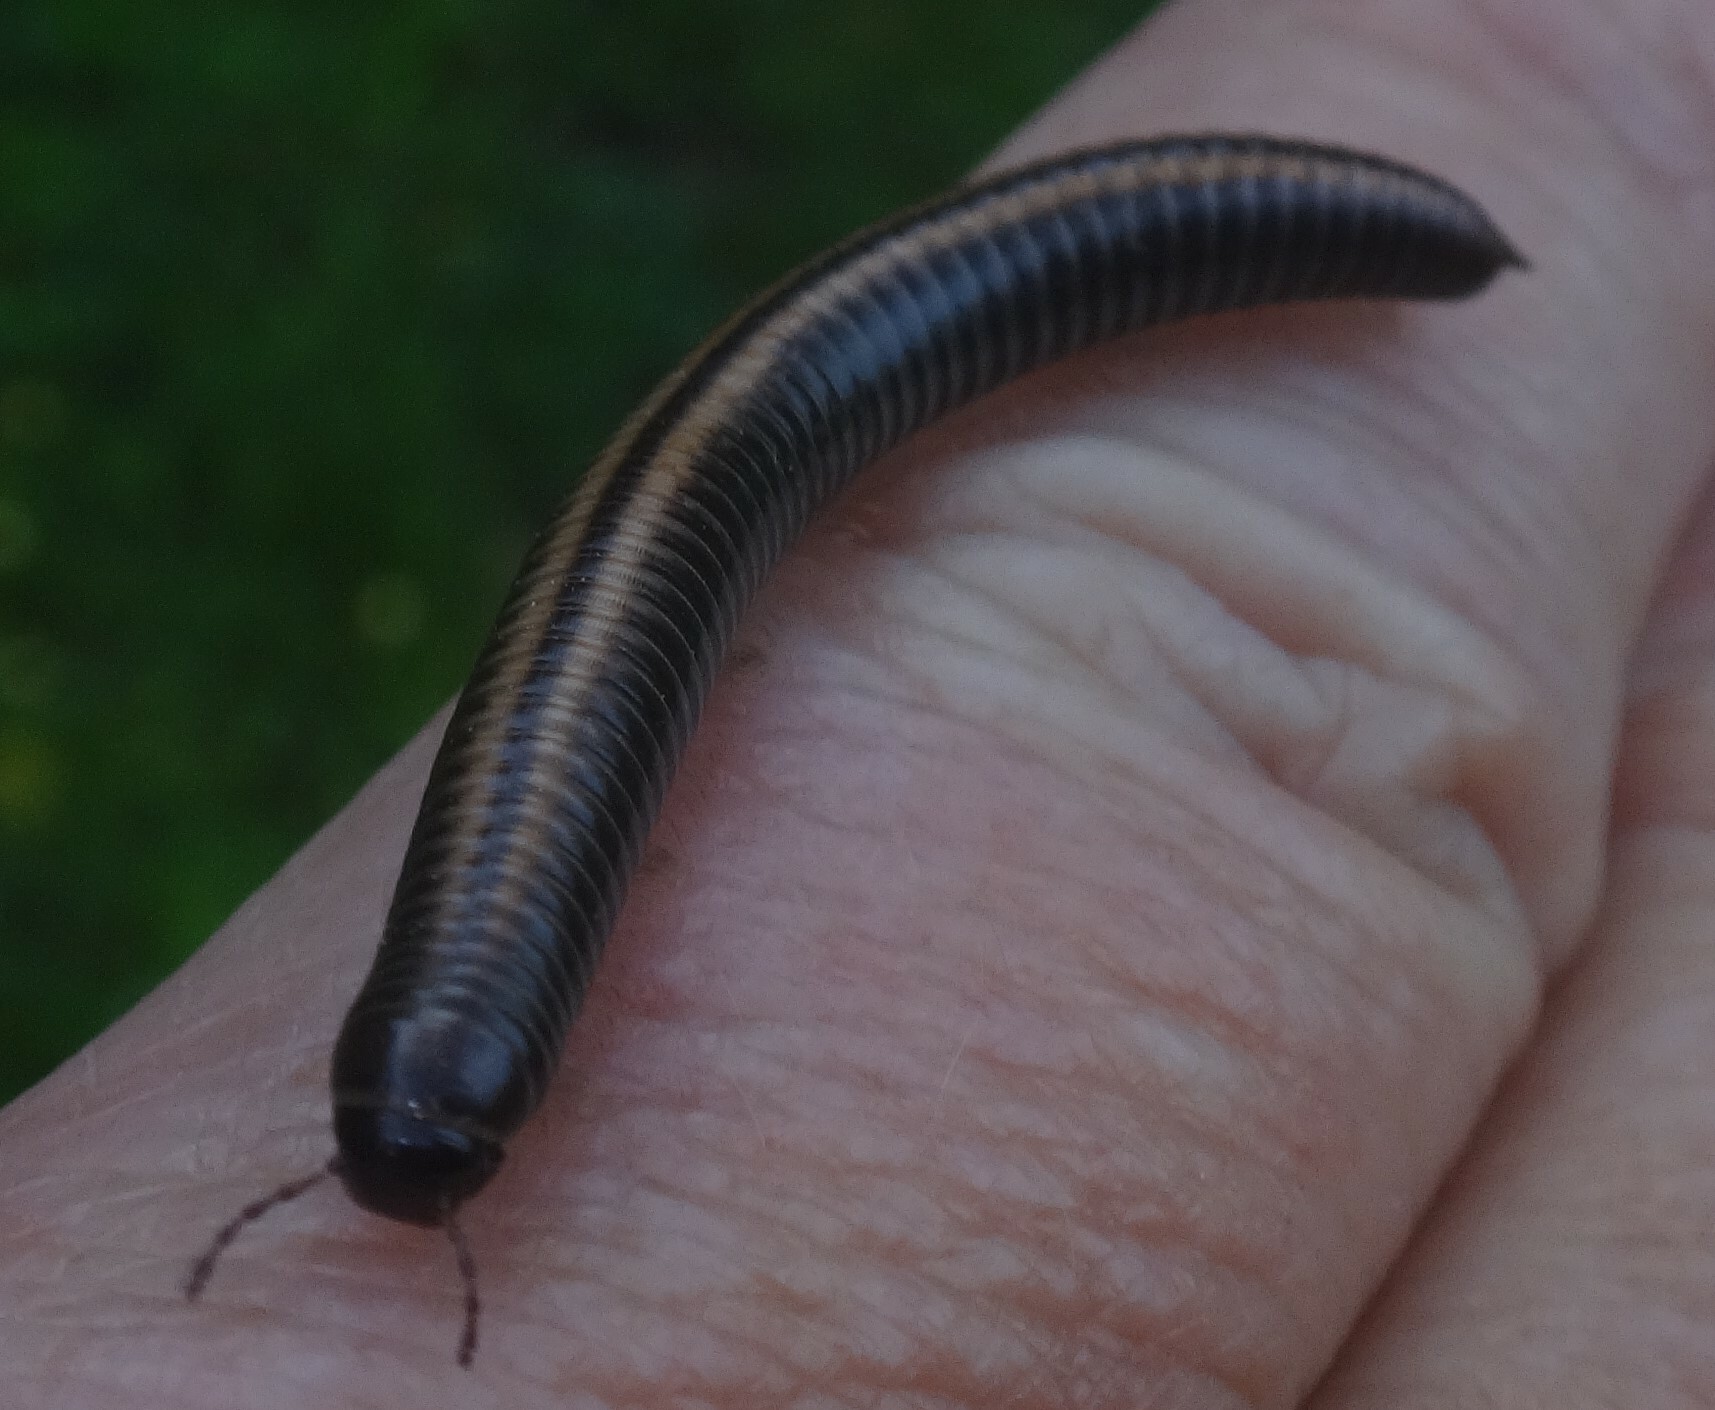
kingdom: Animalia
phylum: Arthropoda
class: Diplopoda
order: Julida
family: Julidae
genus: Ommatoiulus
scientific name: Ommatoiulus sabulosus
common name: Striped millipede
